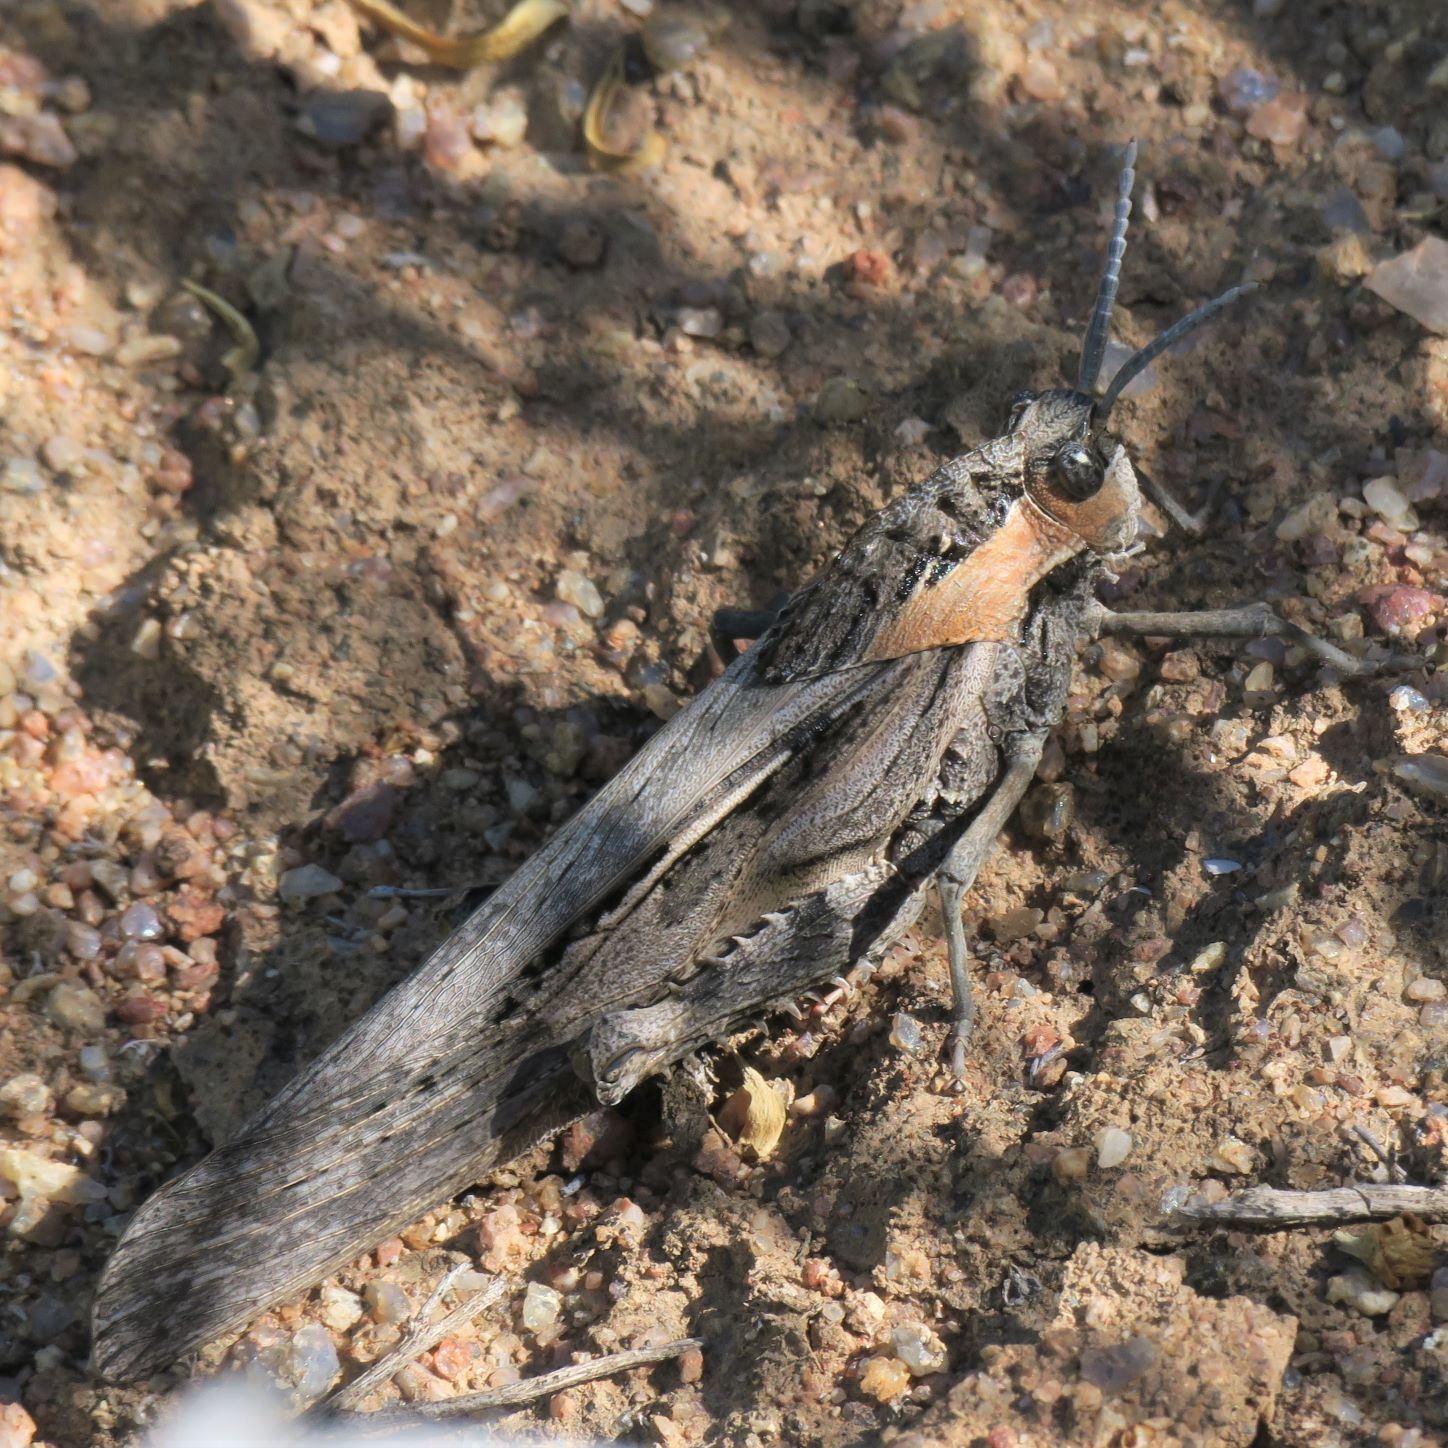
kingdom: Animalia
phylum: Arthropoda
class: Insecta
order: Orthoptera
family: Pamphagidae
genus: Porthetis
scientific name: Porthetis carinata
